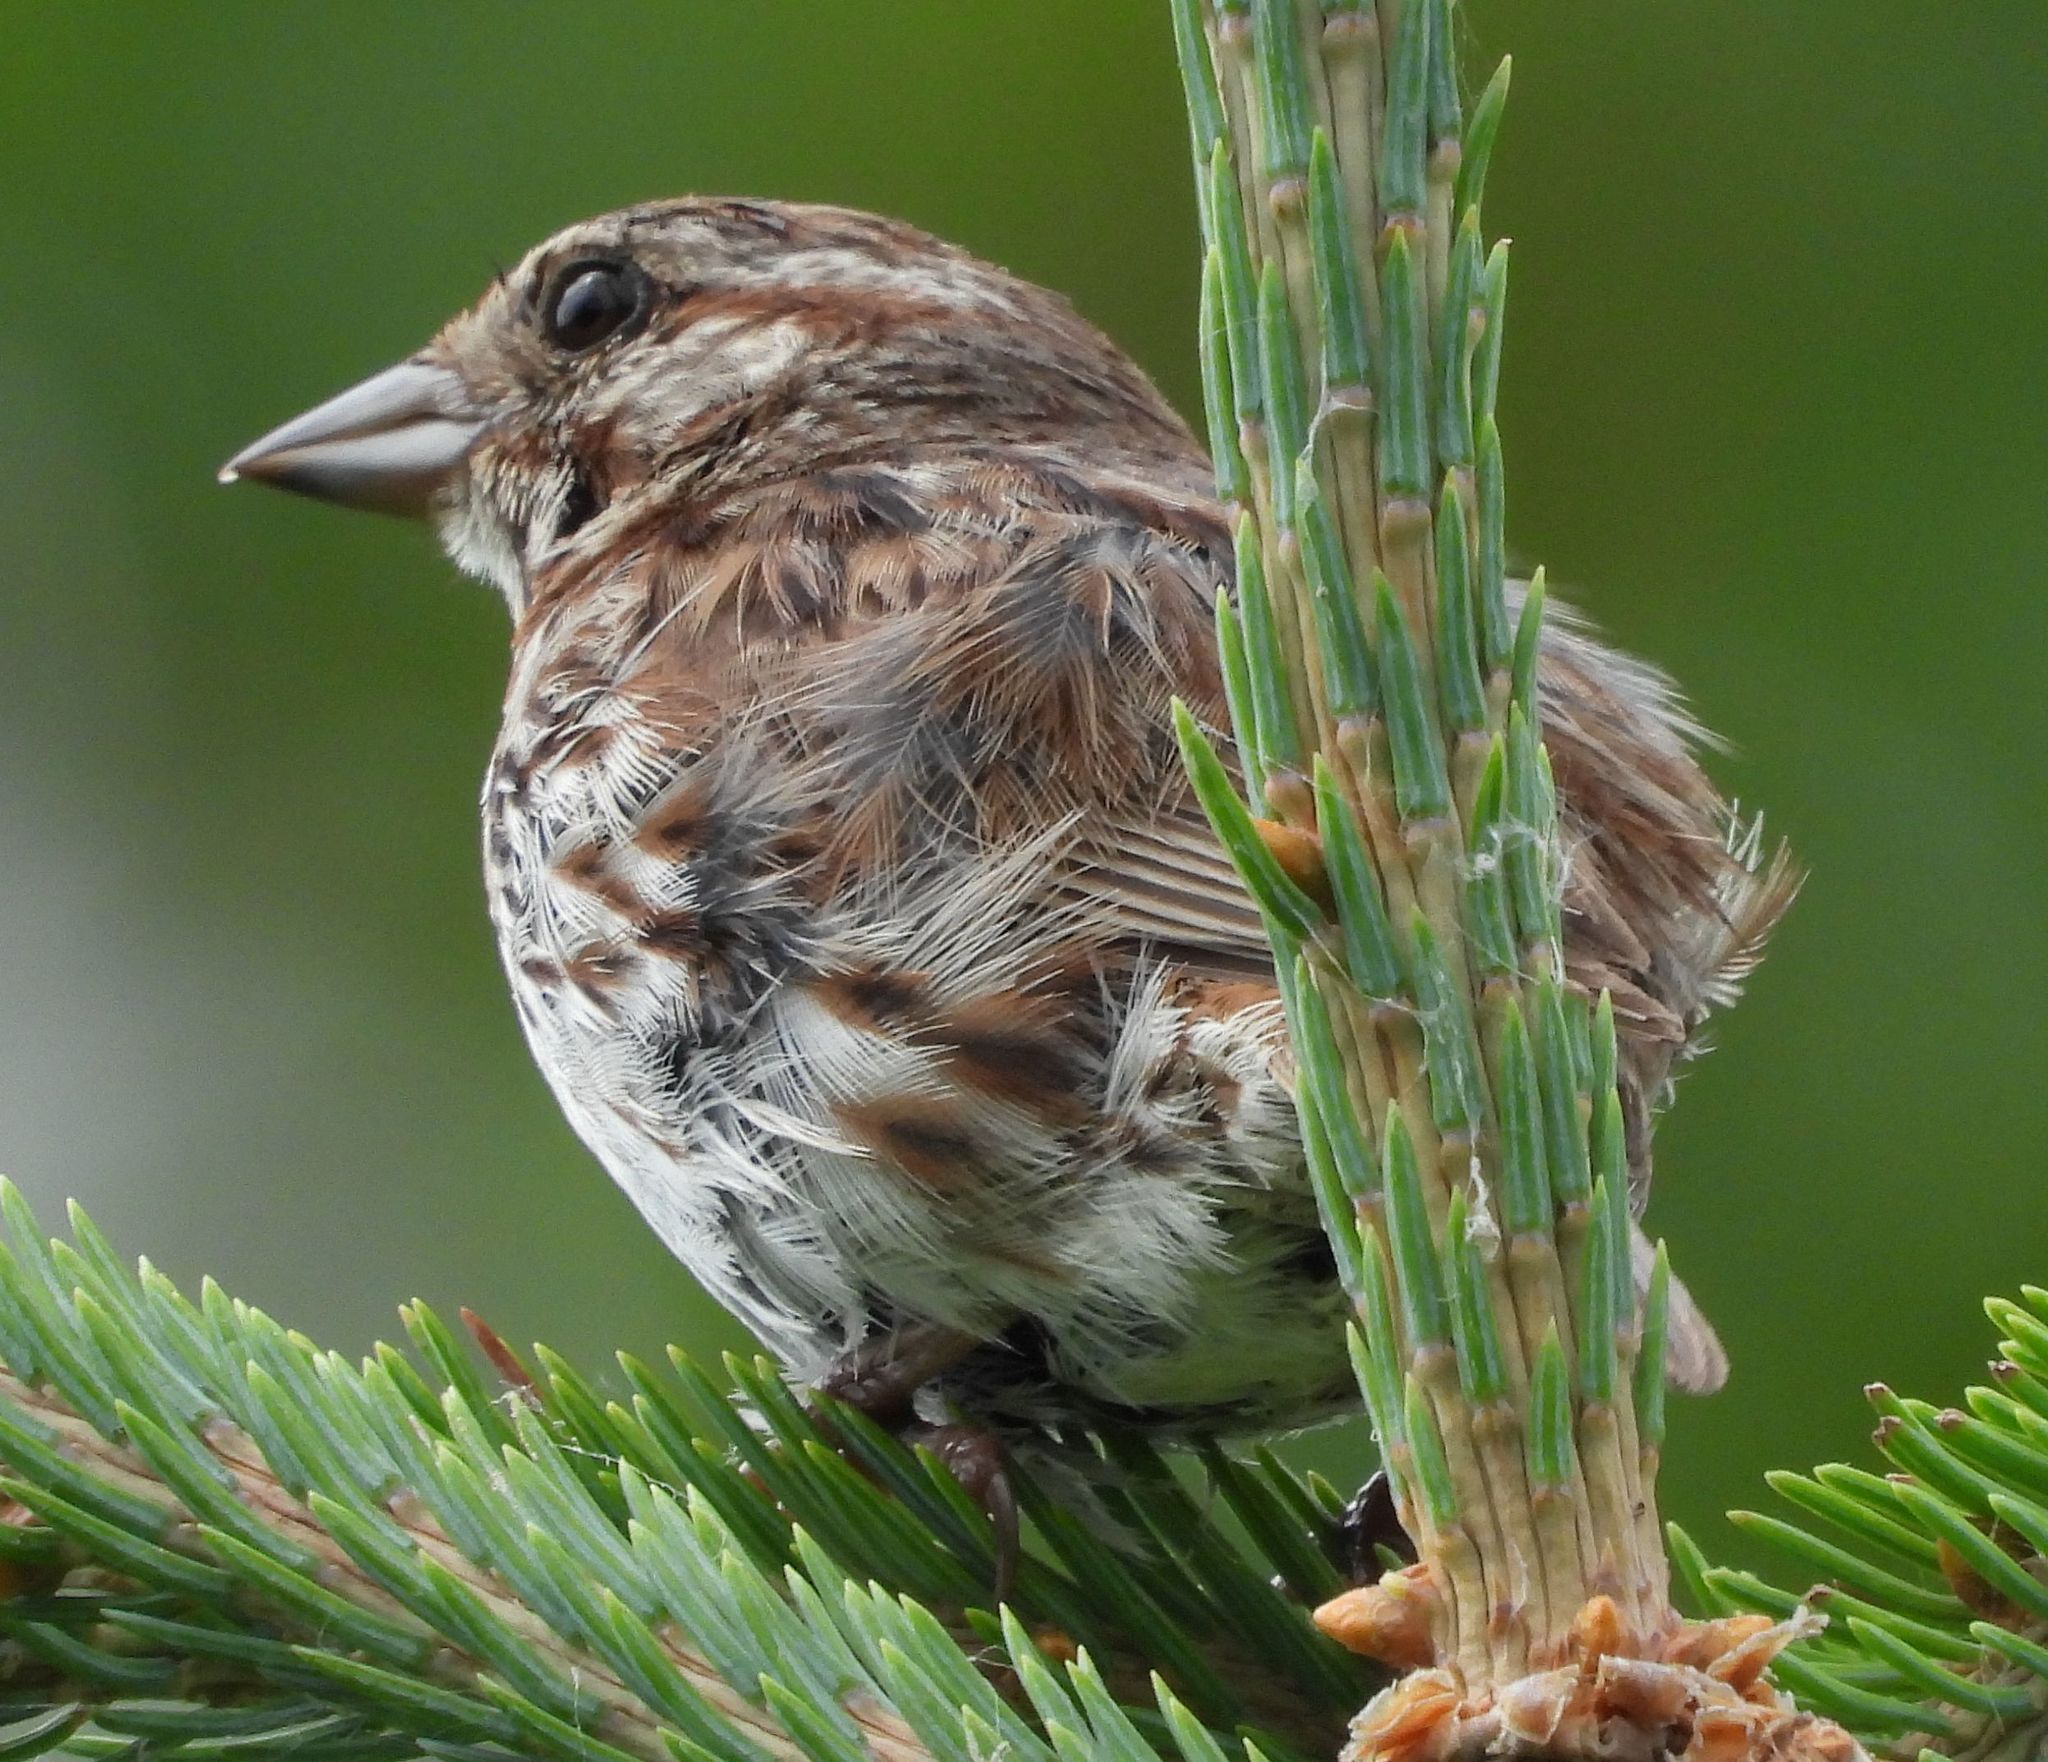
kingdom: Animalia
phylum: Chordata
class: Aves
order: Passeriformes
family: Passerellidae
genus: Melospiza
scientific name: Melospiza melodia
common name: Song sparrow
